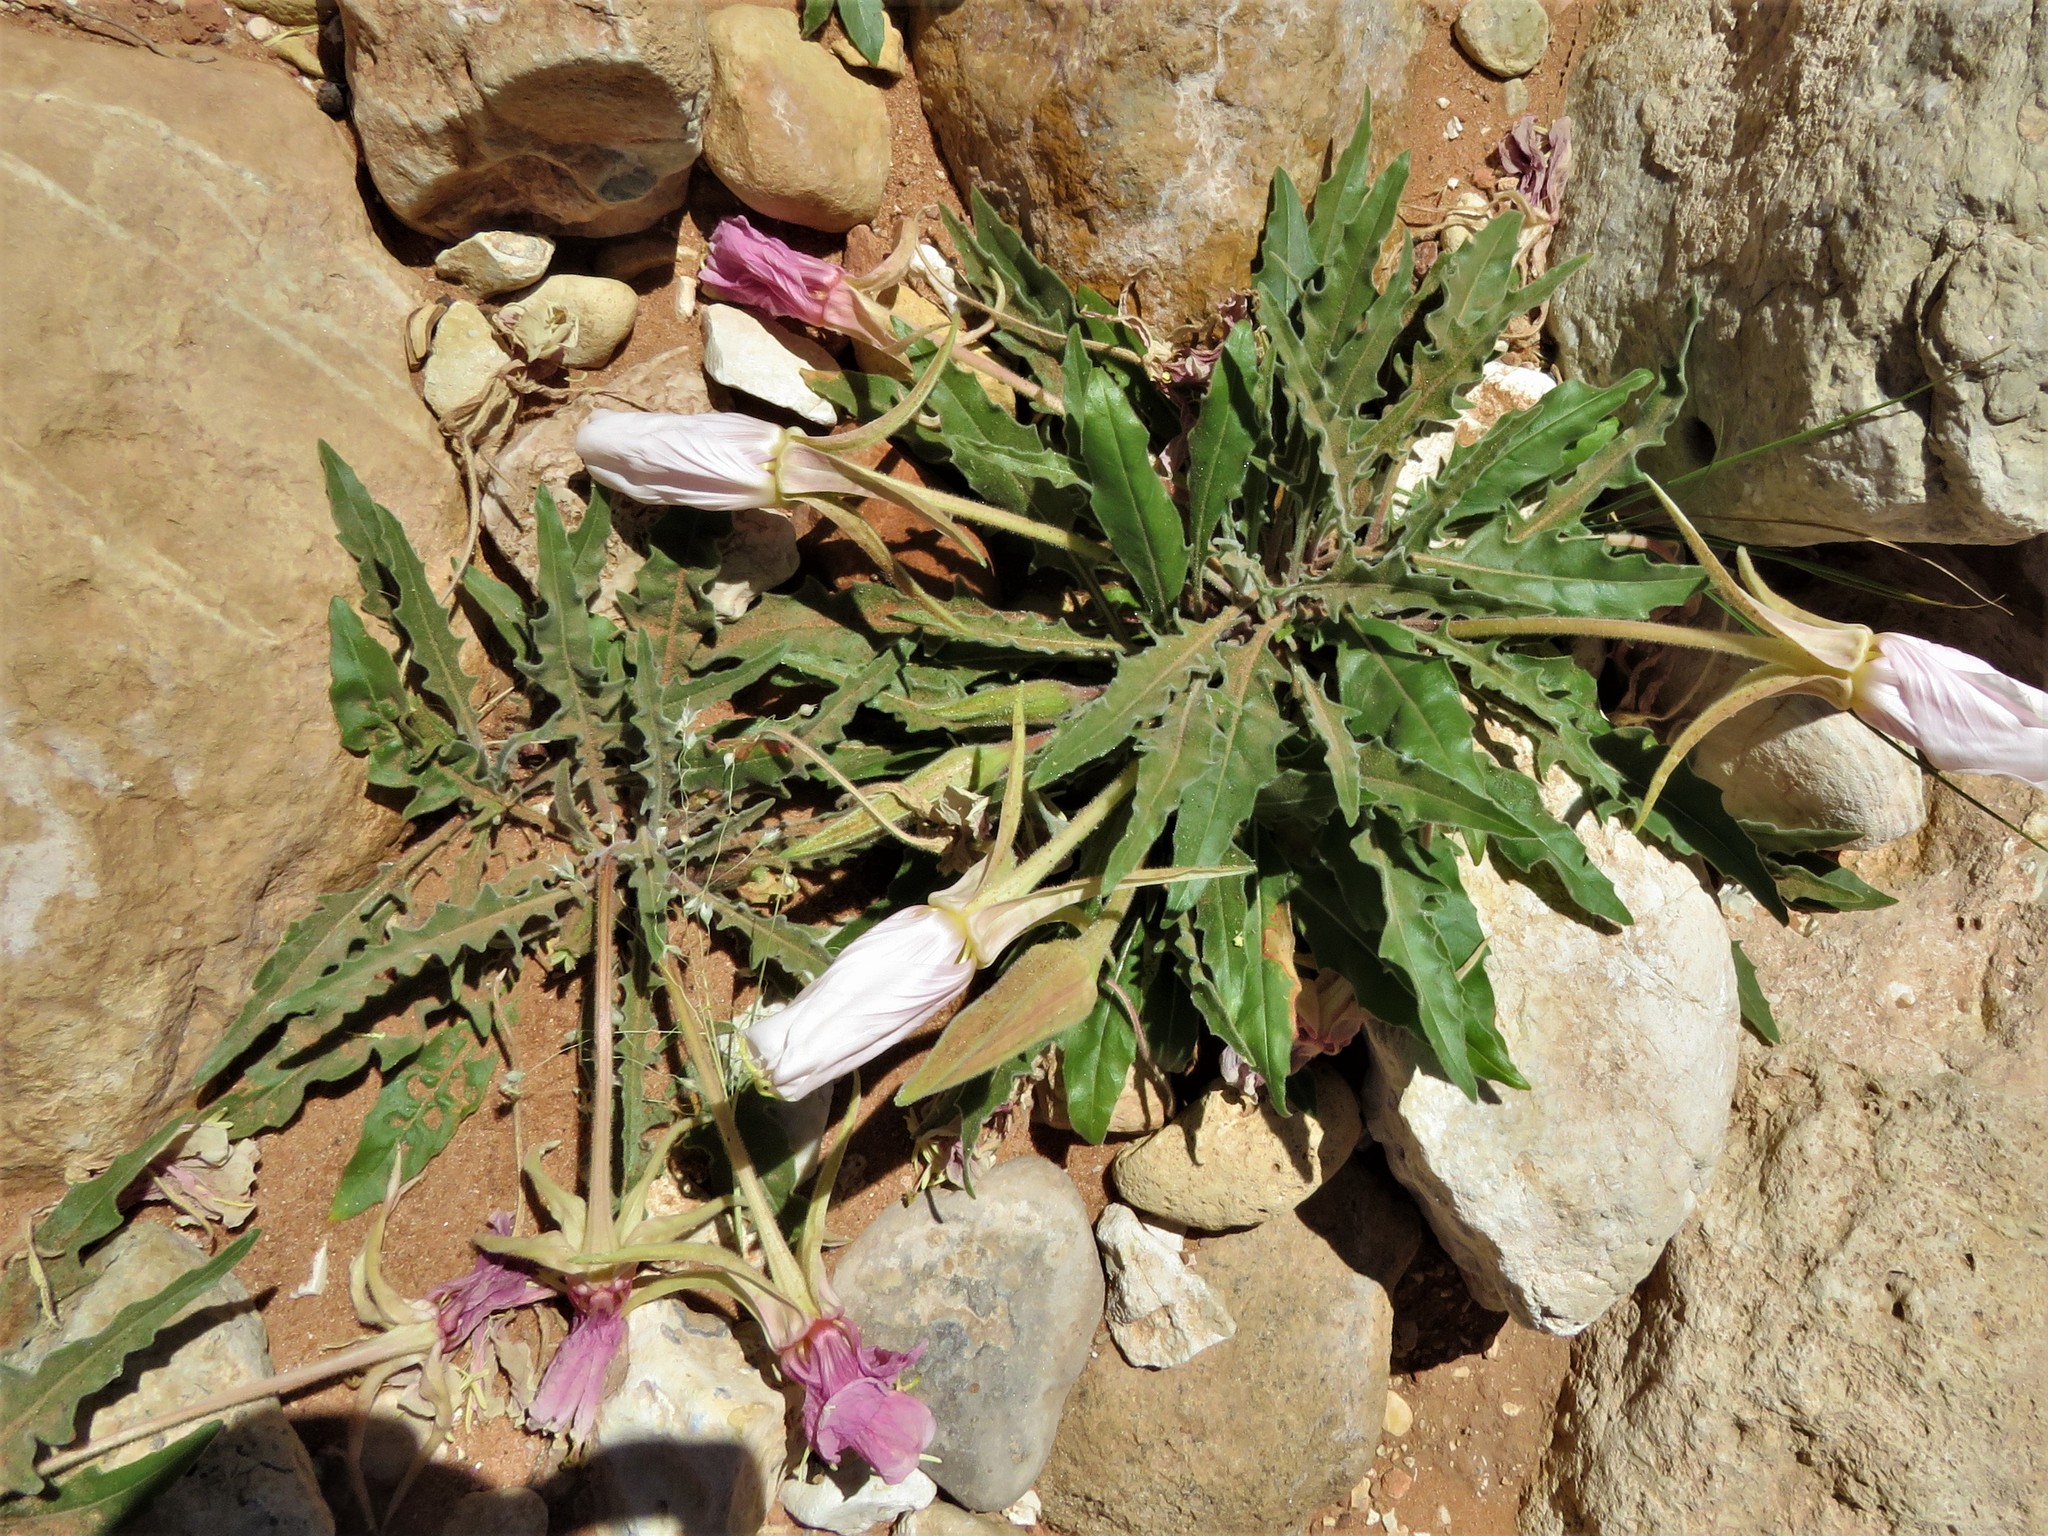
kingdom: Plantae
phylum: Tracheophyta
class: Magnoliopsida
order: Myrtales
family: Onagraceae
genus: Oenothera
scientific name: Oenothera cespitosa
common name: Tufted evening-primrose
